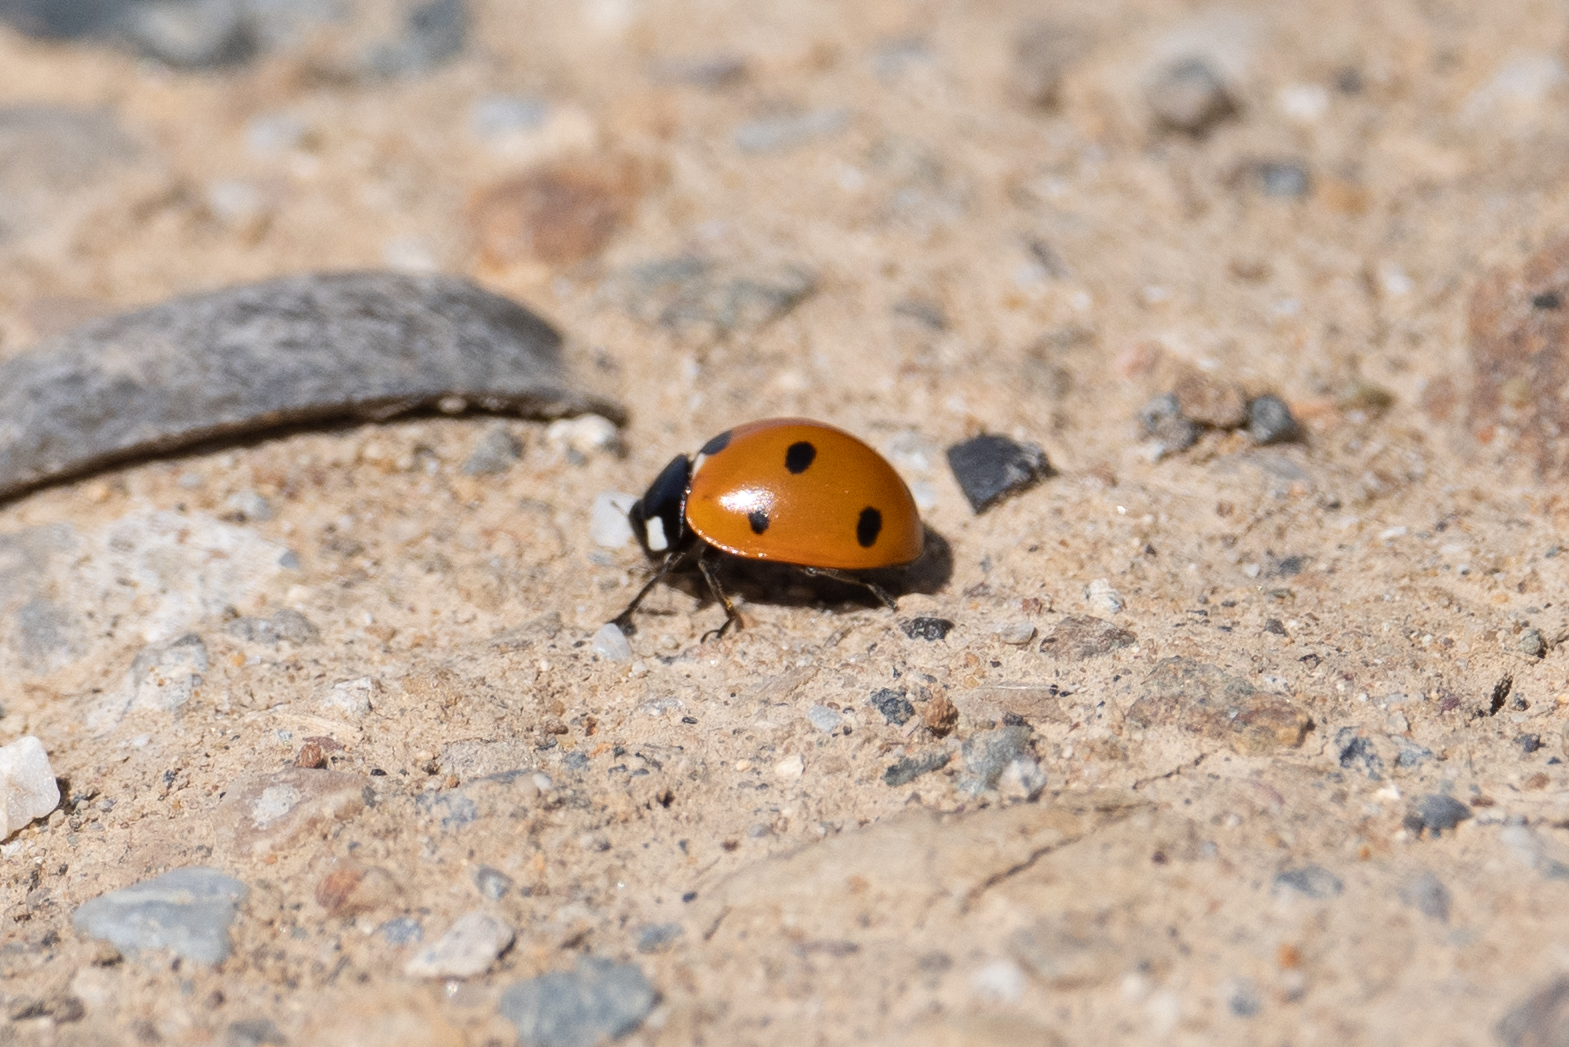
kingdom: Animalia
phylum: Arthropoda
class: Insecta
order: Coleoptera
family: Coccinellidae
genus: Coccinella
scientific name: Coccinella septempunctata
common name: Sevenspotted lady beetle
